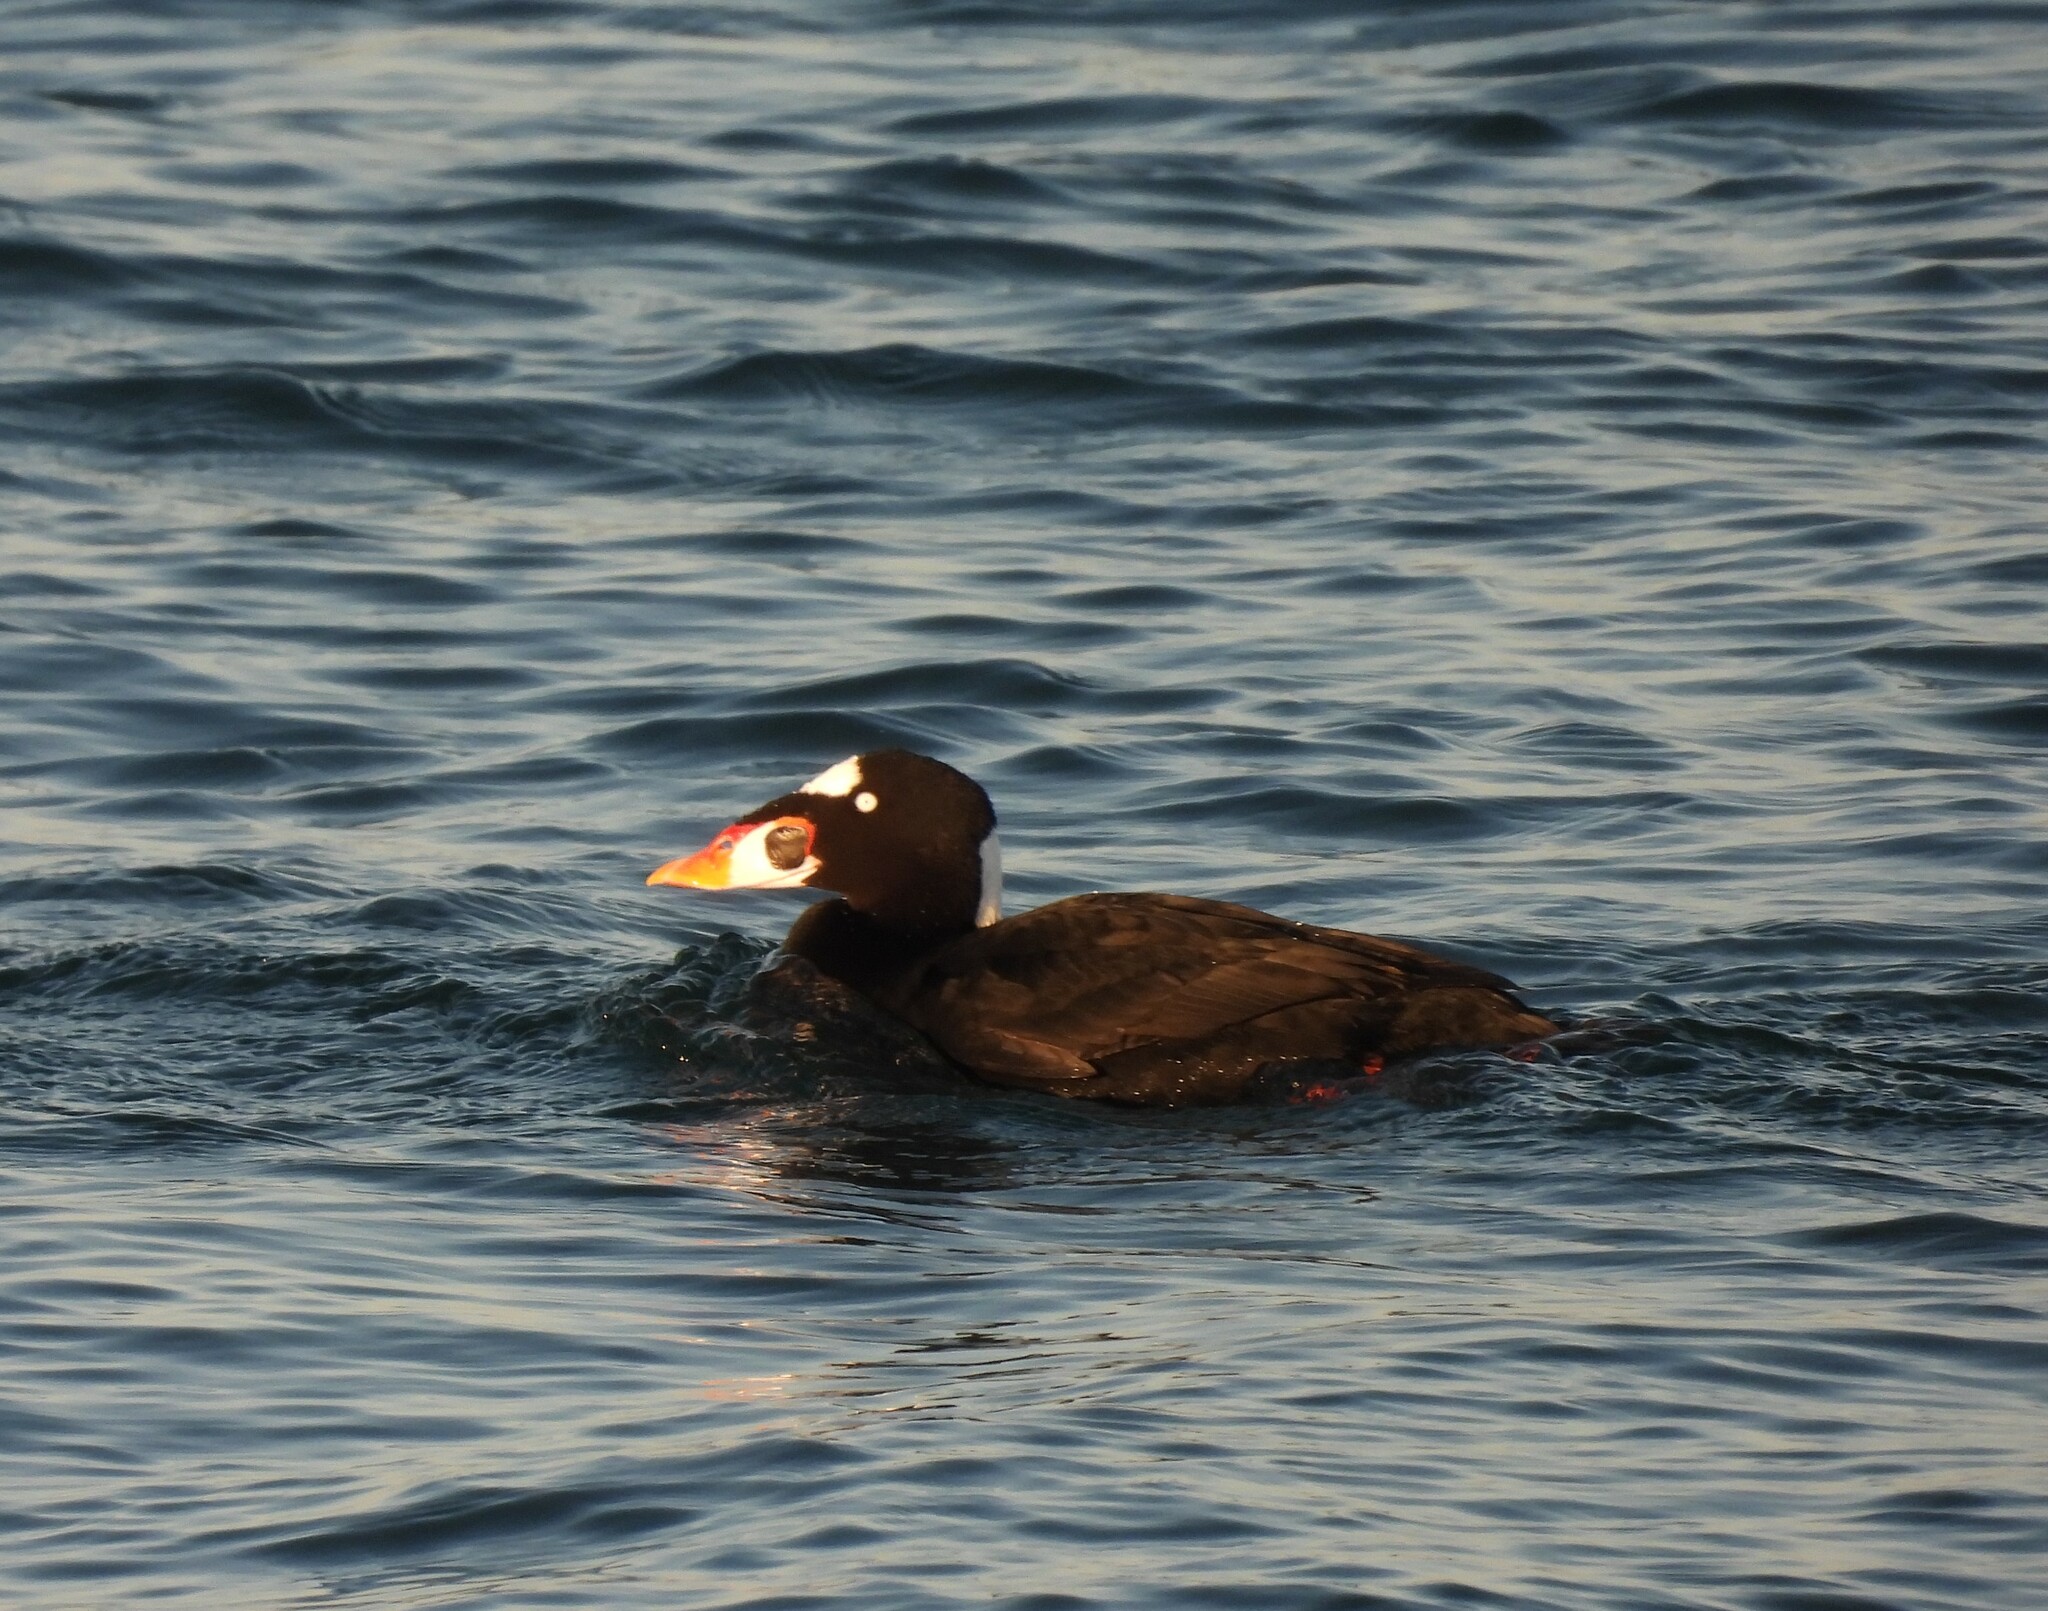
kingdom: Animalia
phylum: Chordata
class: Aves
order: Anseriformes
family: Anatidae
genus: Melanitta
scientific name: Melanitta perspicillata
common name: Surf scoter
